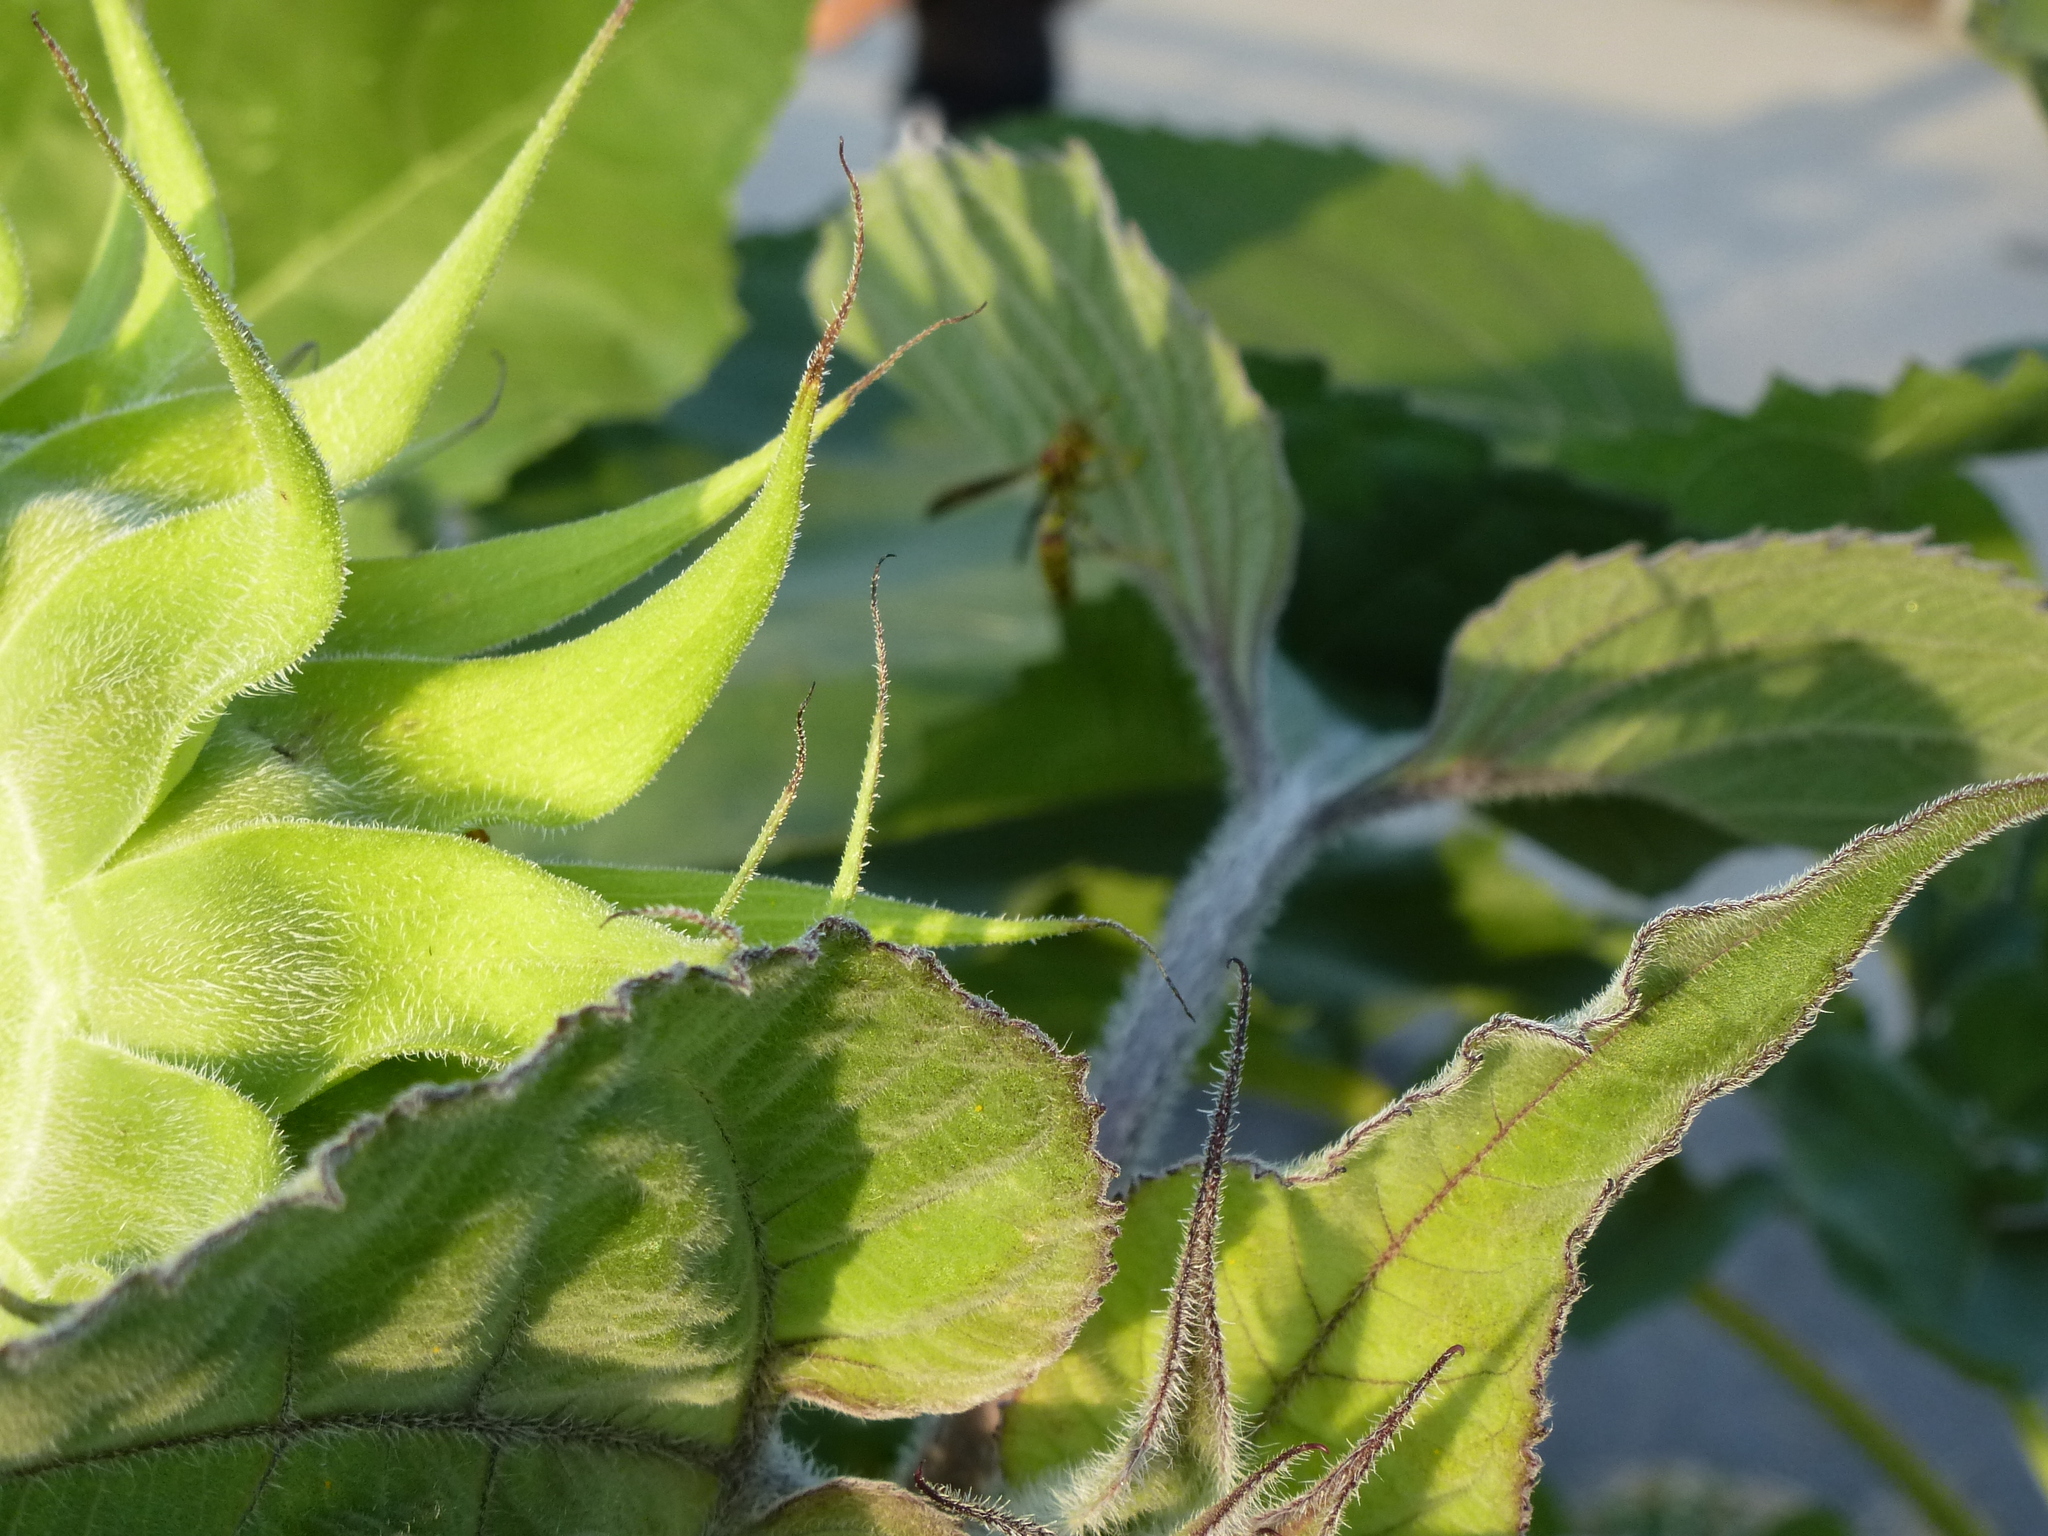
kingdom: Animalia
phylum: Arthropoda
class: Insecta
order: Hymenoptera
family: Eumenidae
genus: Polistes
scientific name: Polistes
